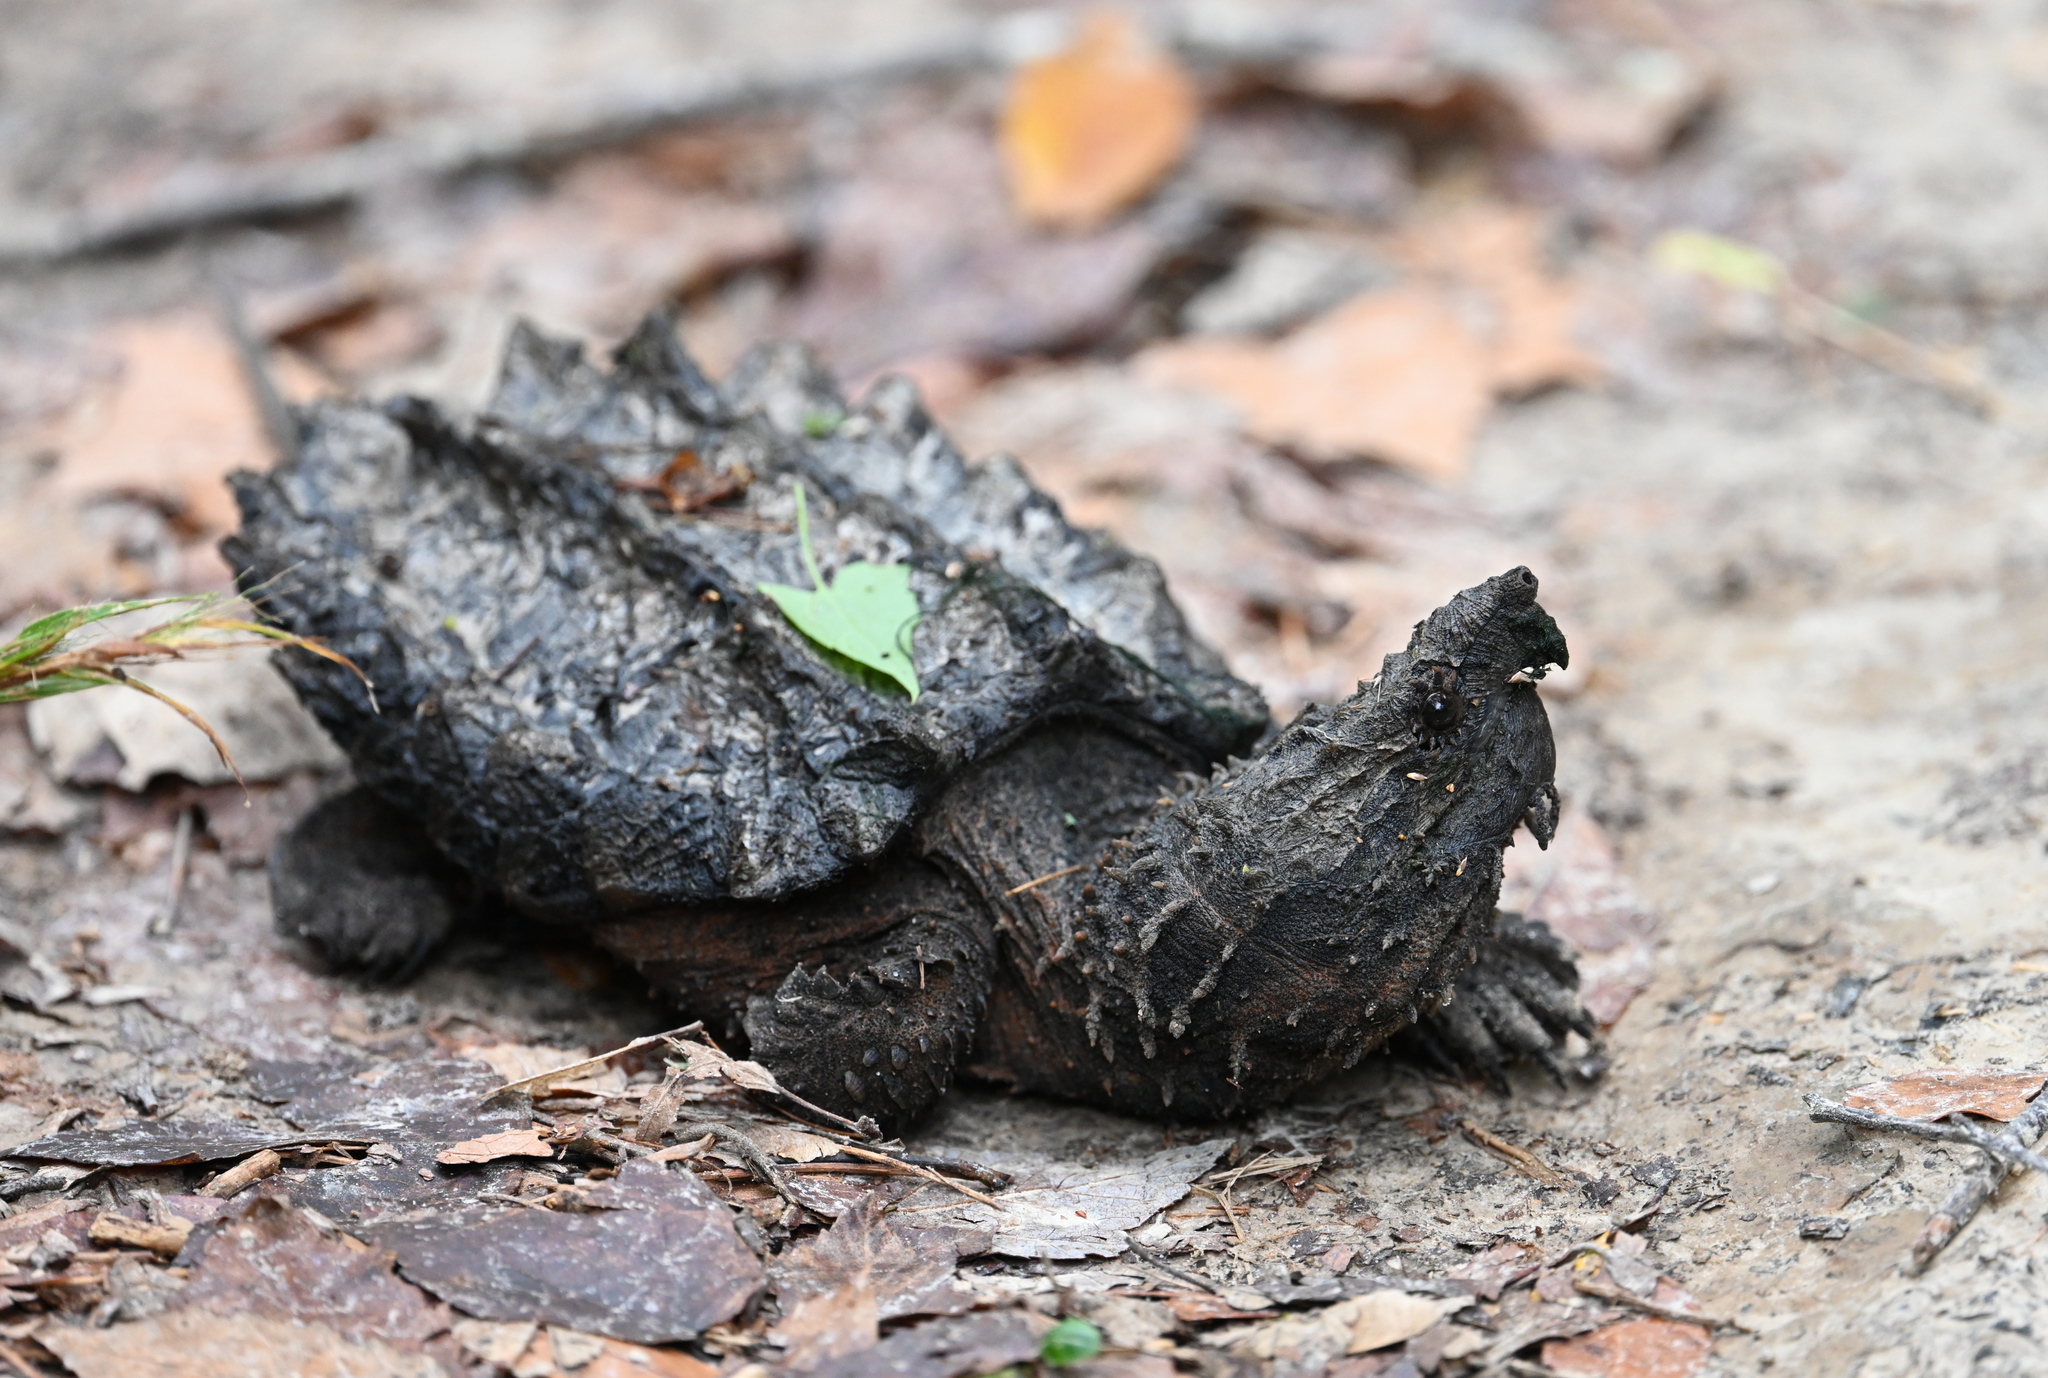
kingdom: Animalia
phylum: Chordata
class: Testudines
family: Chelydridae
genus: Macrochelys
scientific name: Macrochelys temminckii
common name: Alligator snapping turtle
